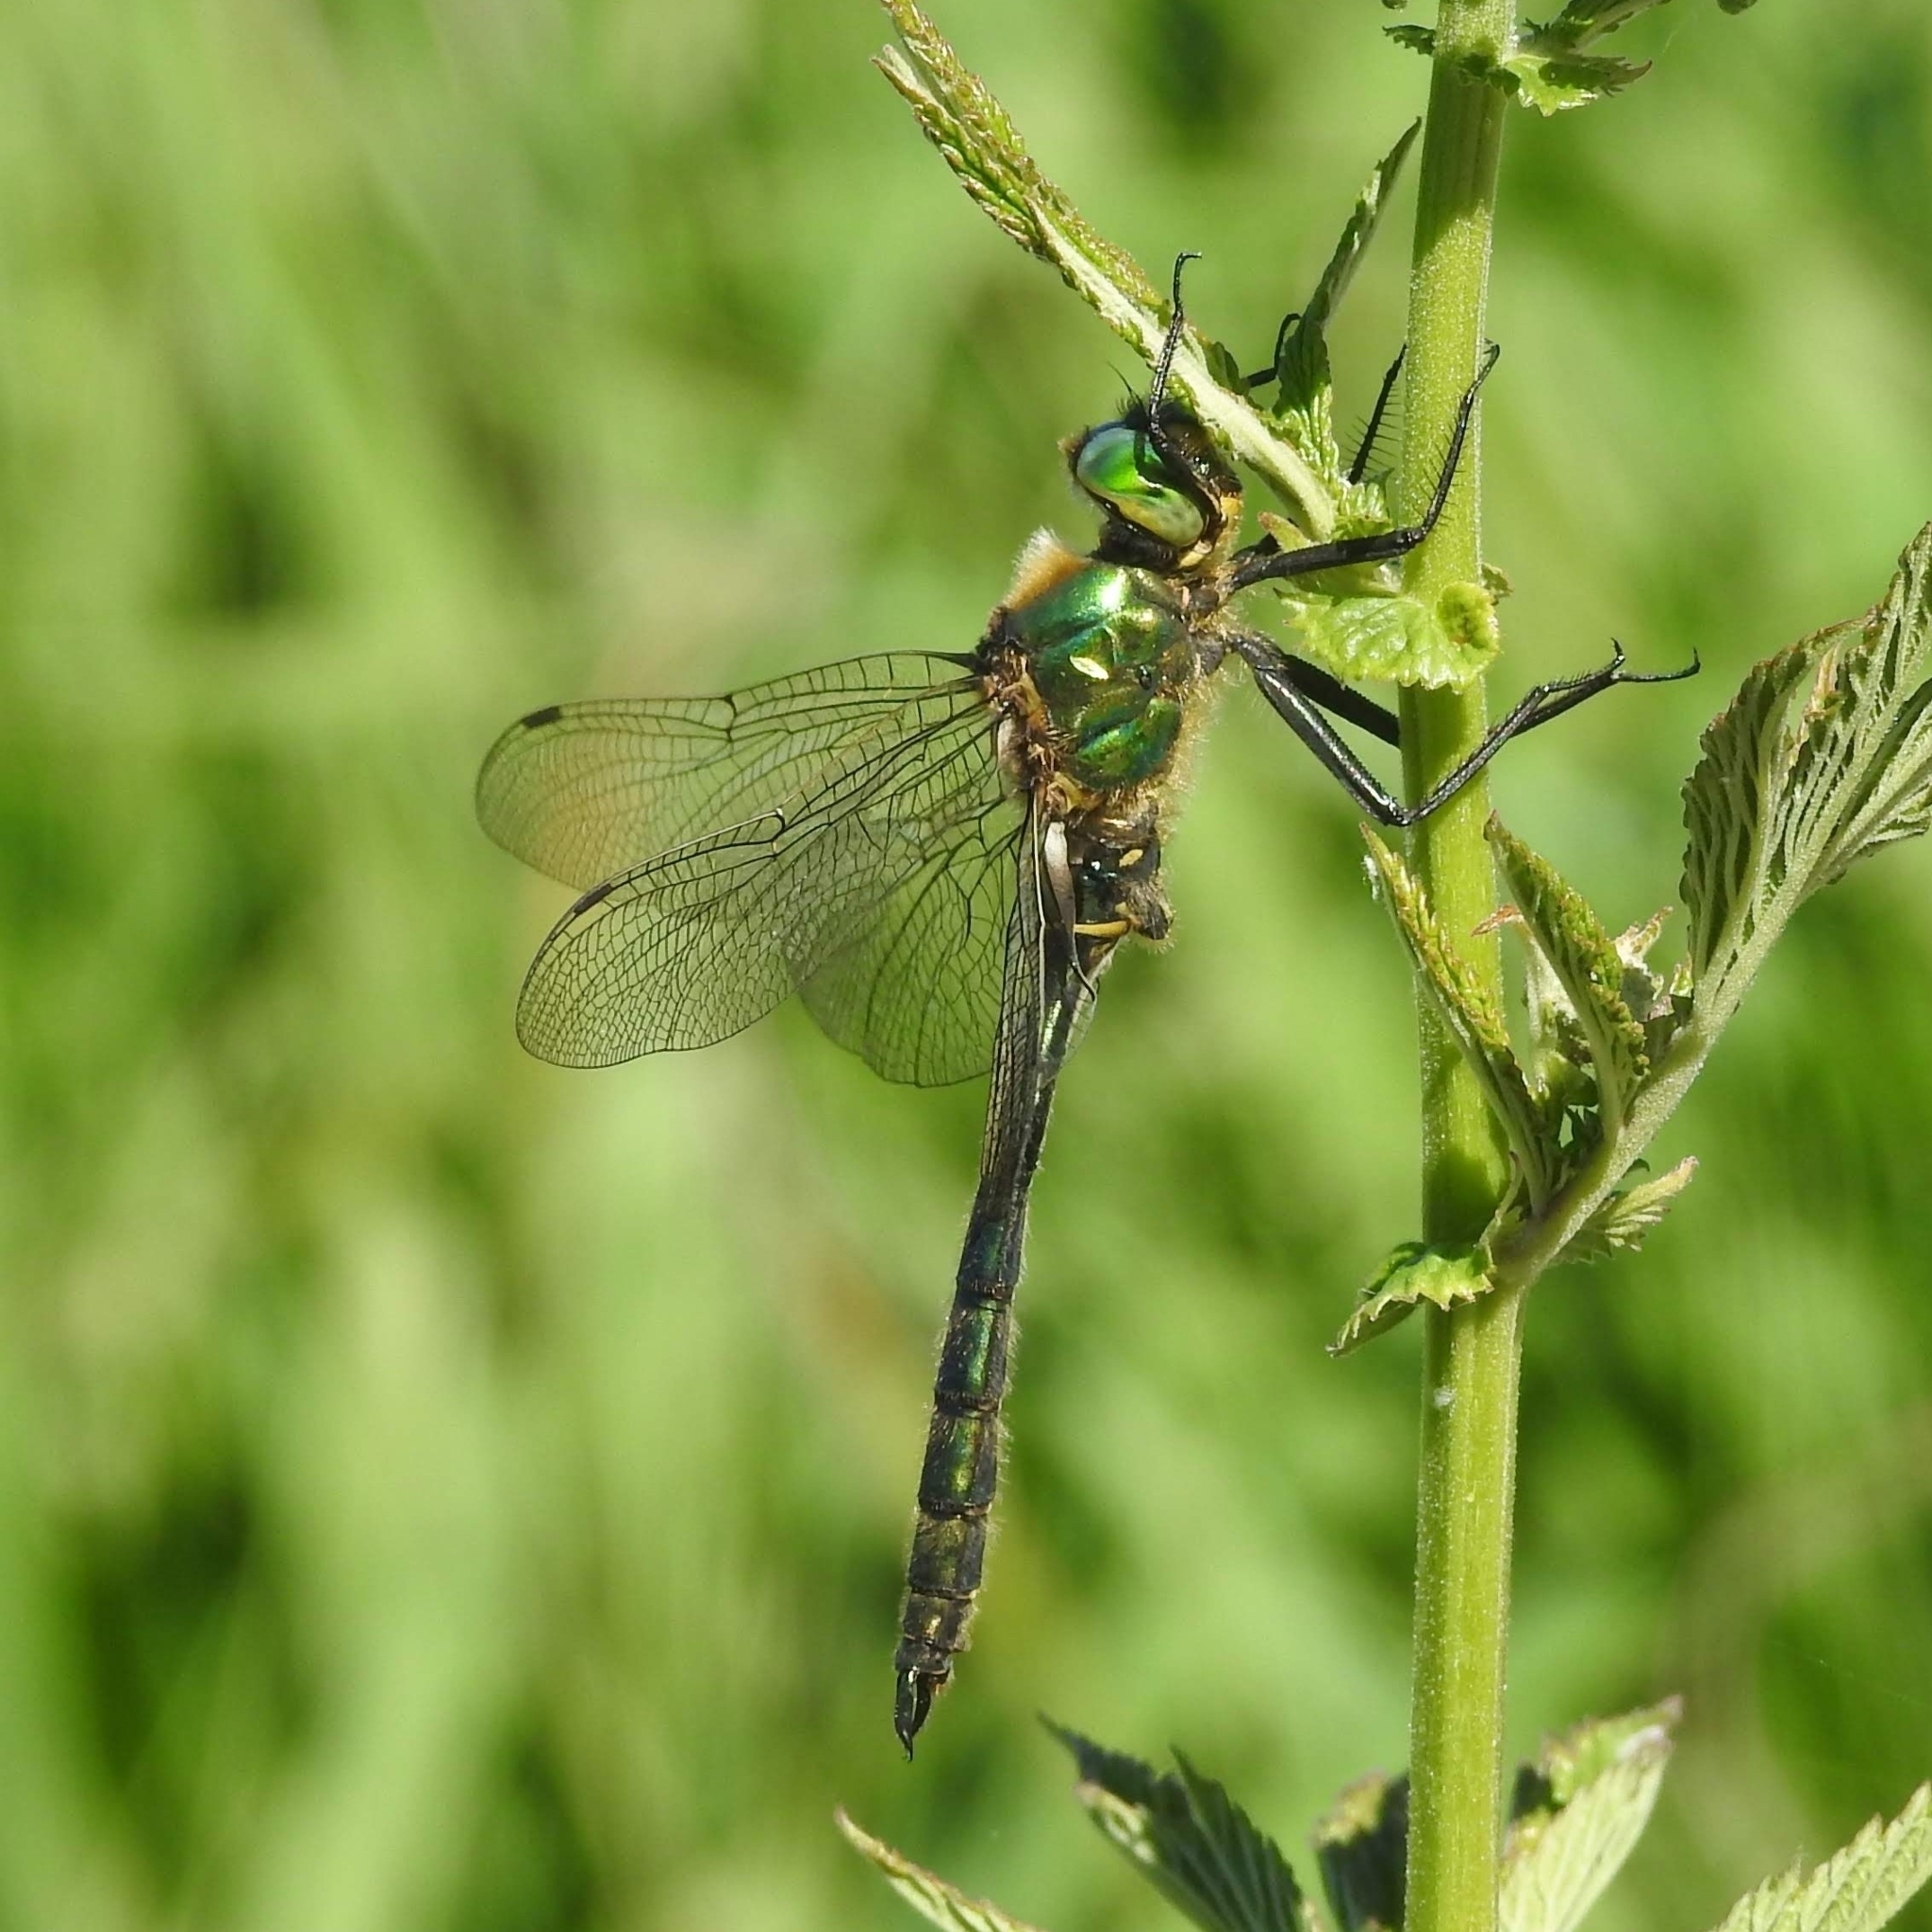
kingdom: Animalia
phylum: Arthropoda
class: Insecta
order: Odonata
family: Corduliidae
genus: Somatochlora
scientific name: Somatochlora metallica
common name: Brilliant emerald
